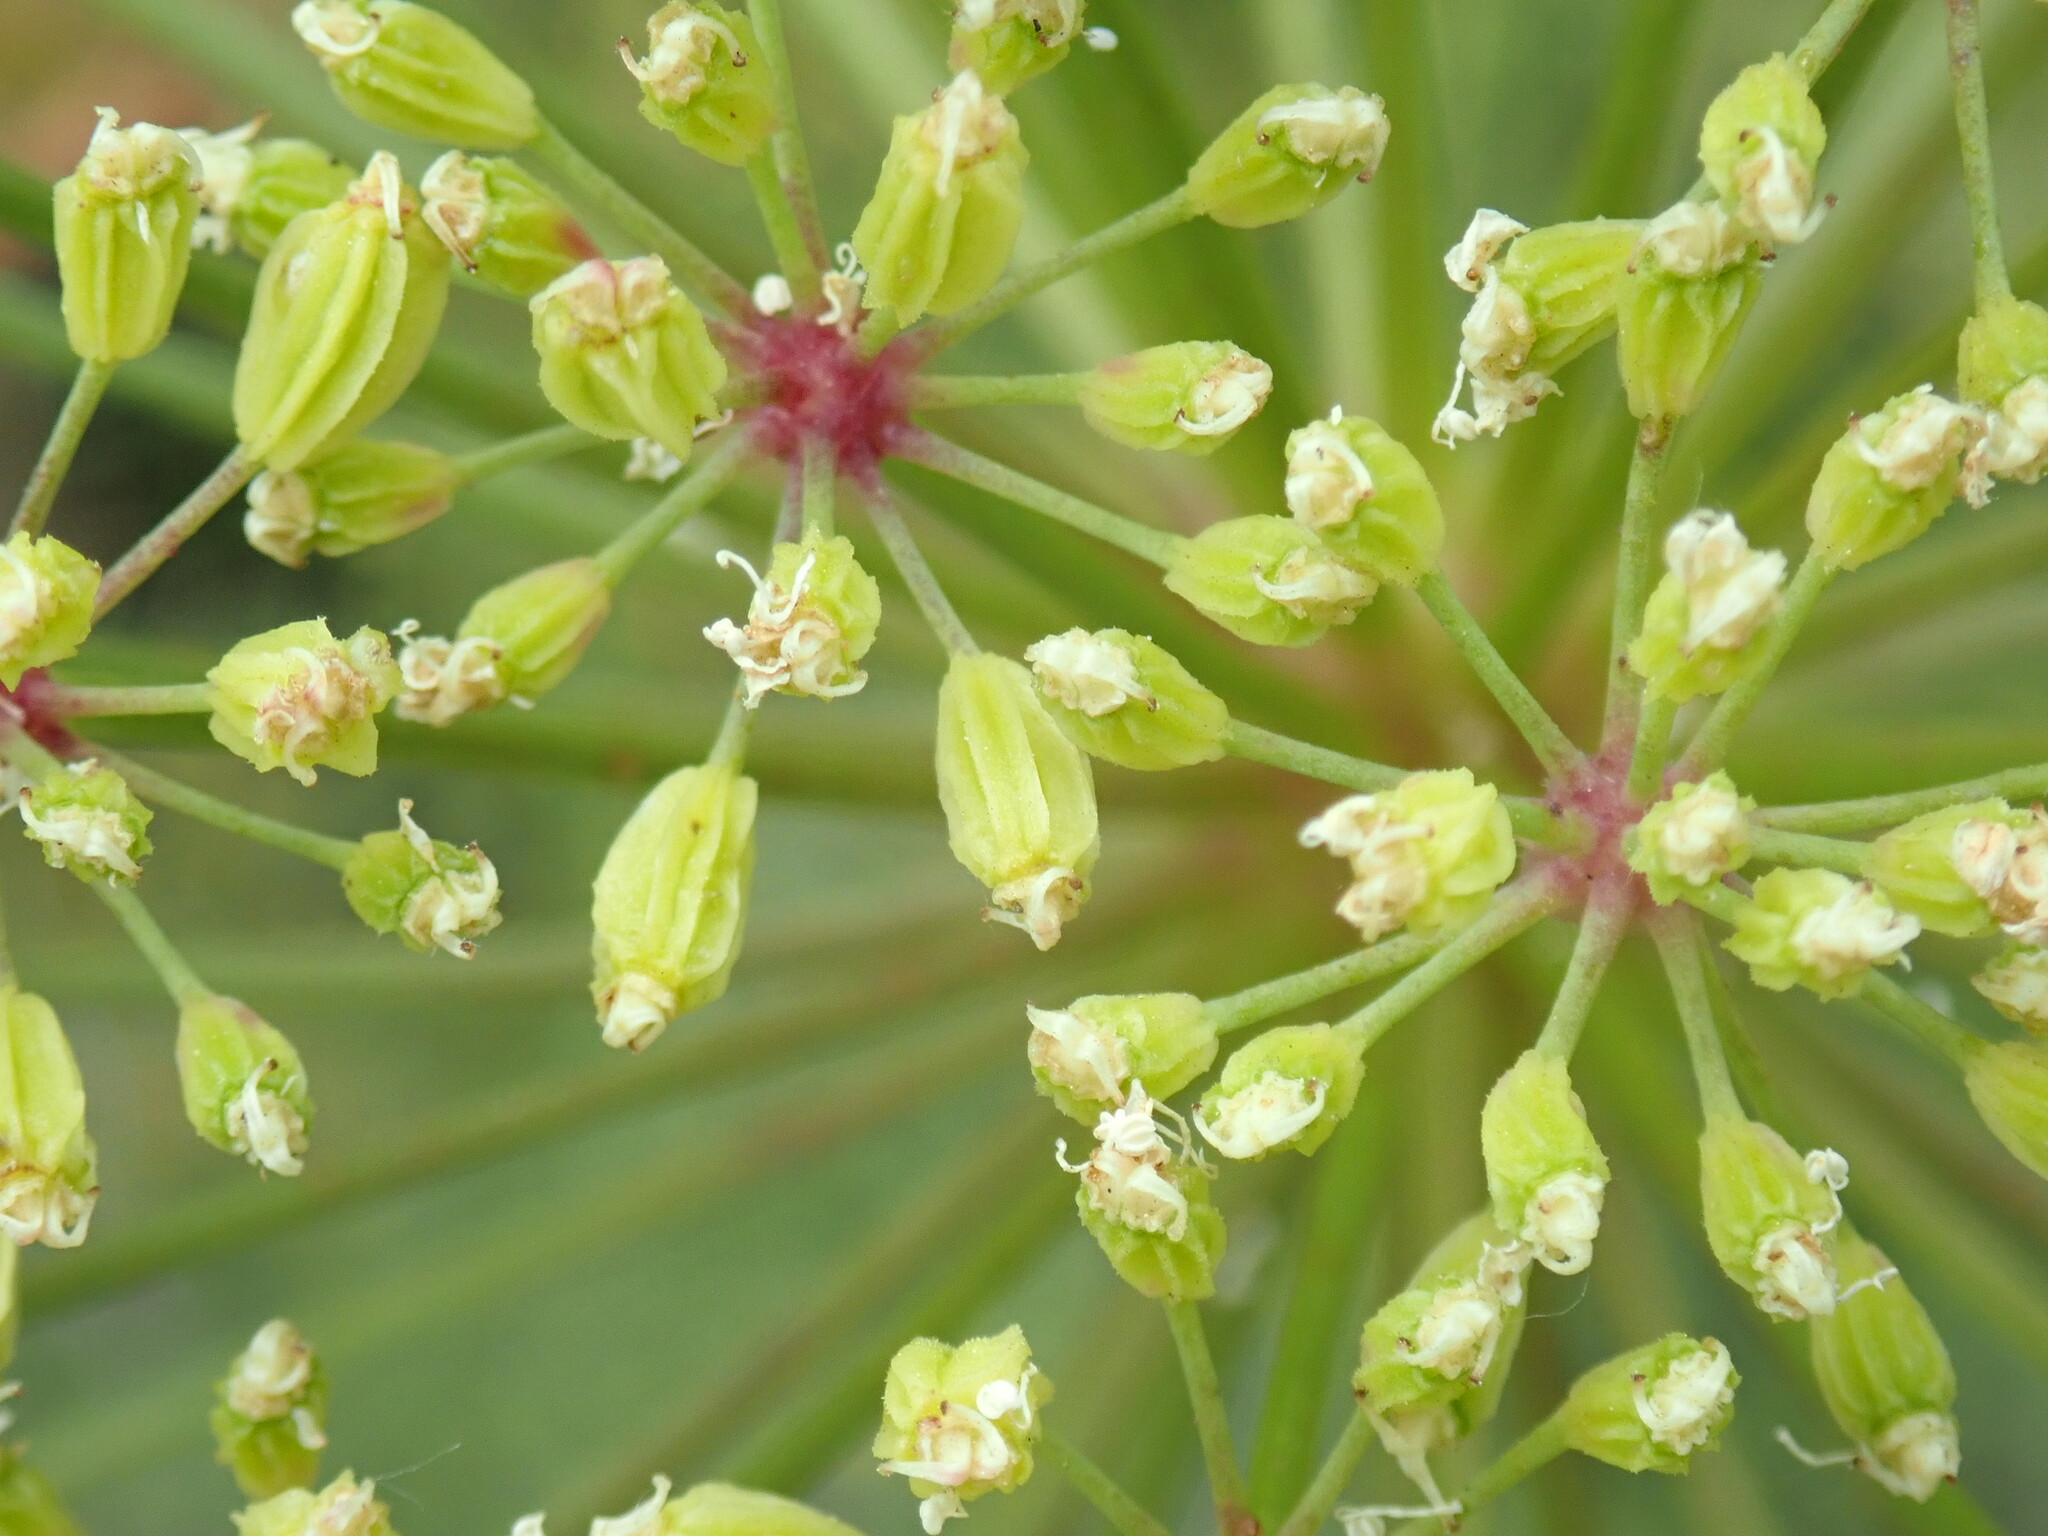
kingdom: Plantae
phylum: Tracheophyta
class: Magnoliopsida
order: Apiales
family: Apiaceae
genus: Angelica
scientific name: Angelica lineariloba
